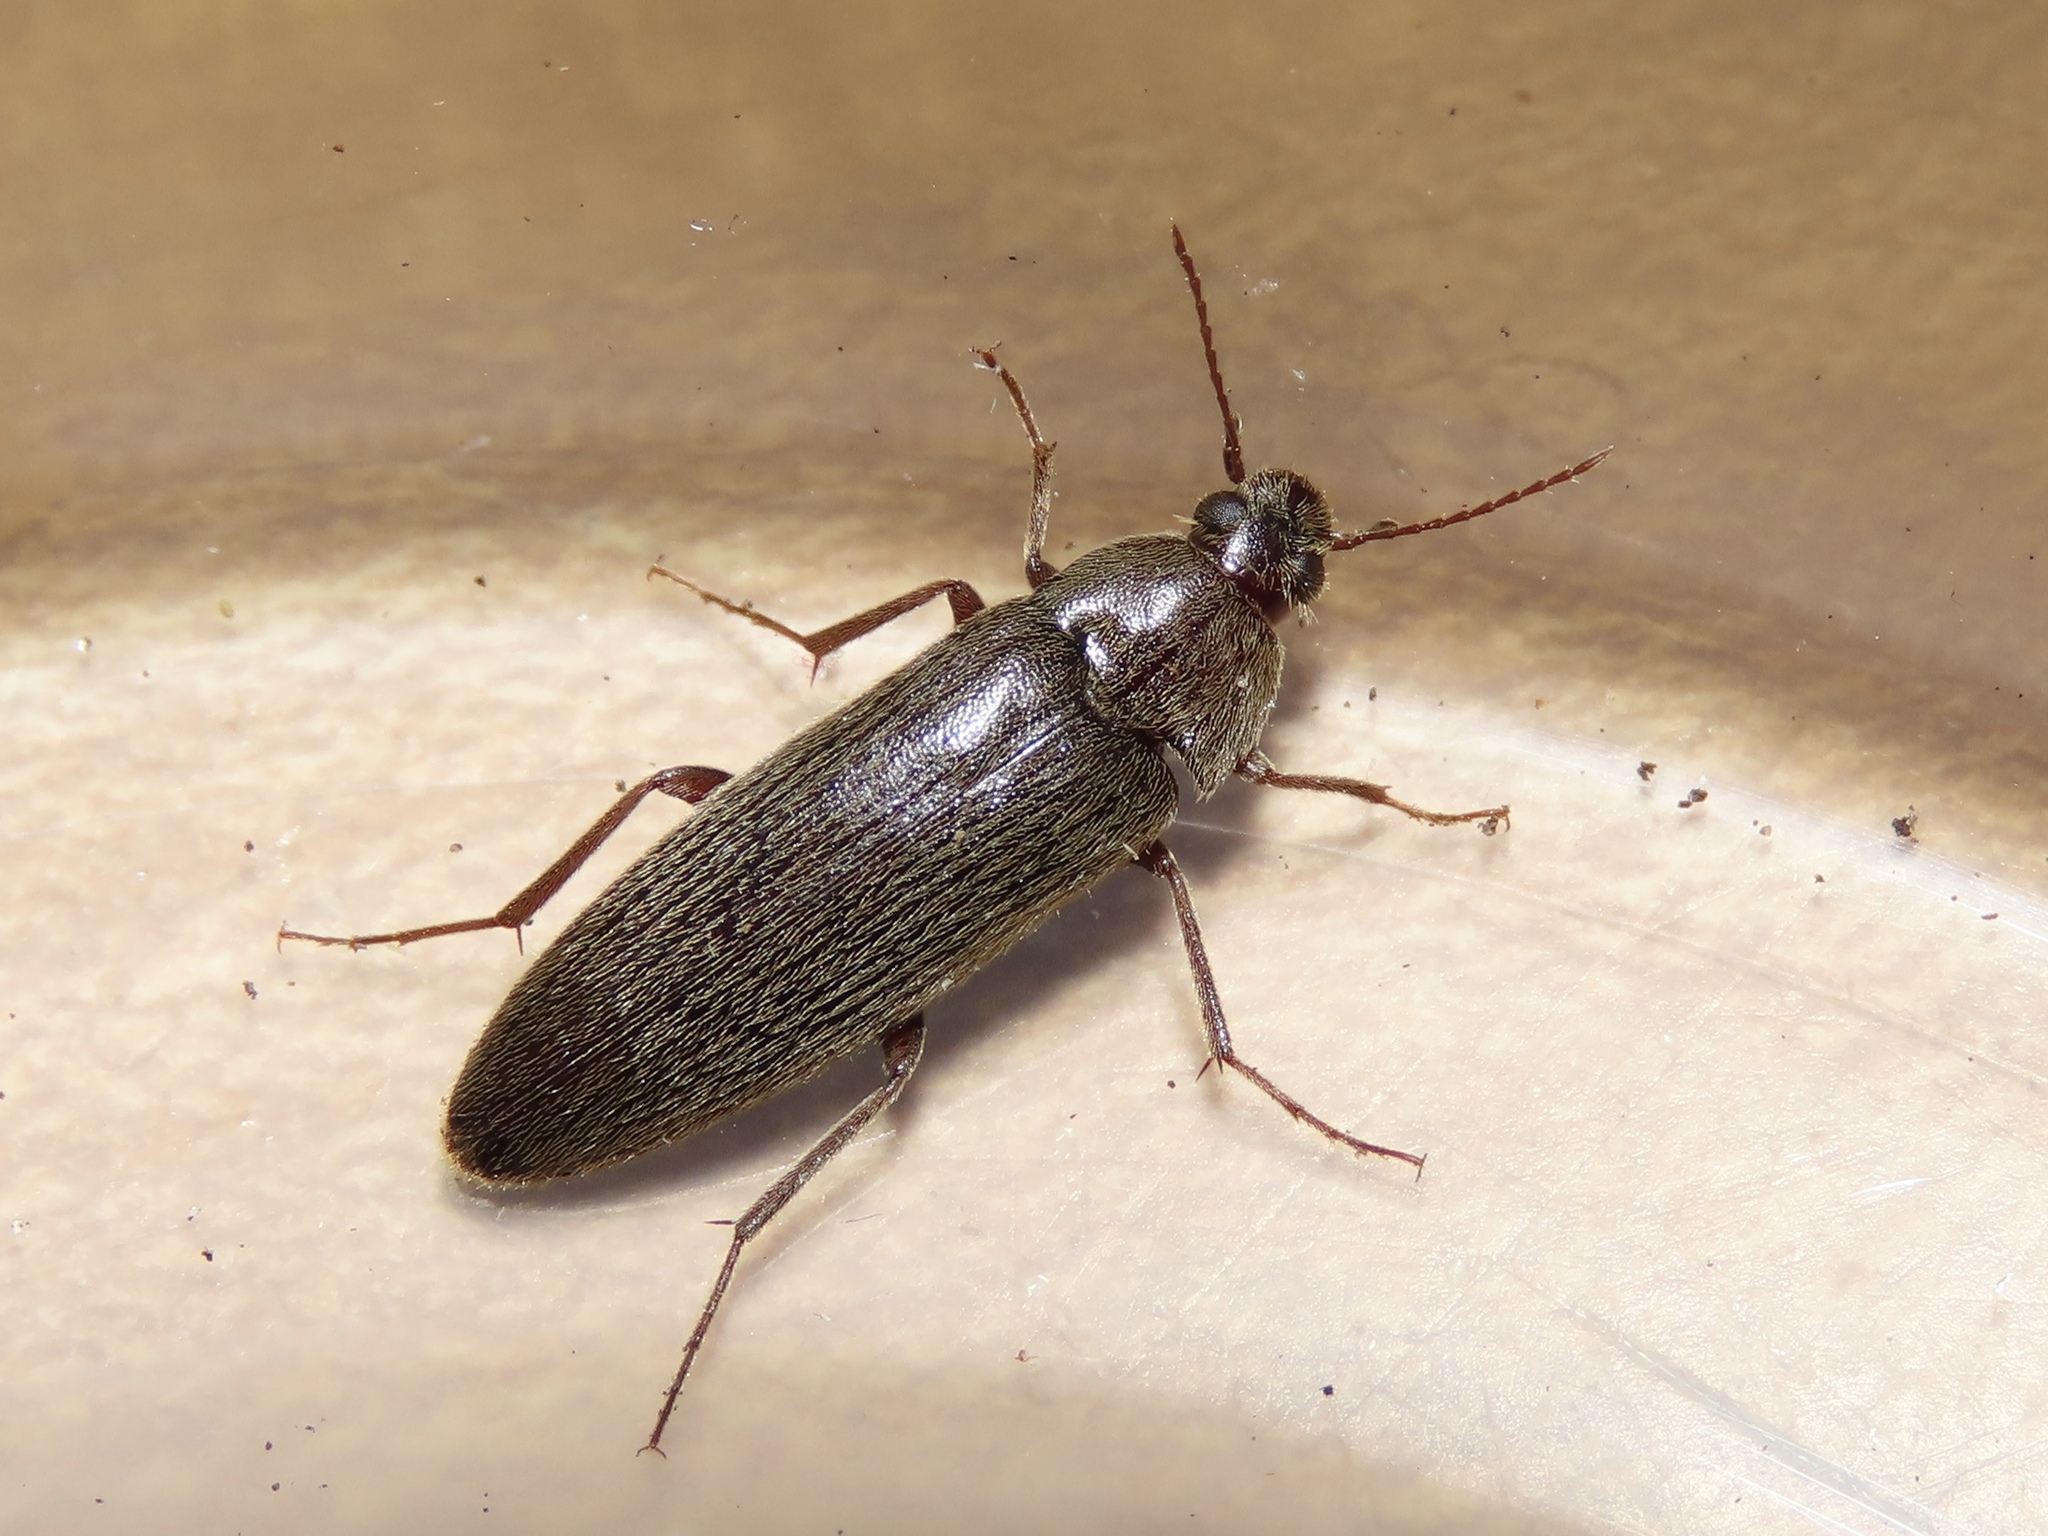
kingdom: Animalia
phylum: Arthropoda
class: Insecta
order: Coleoptera
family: Synchroidae
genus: Synchroa
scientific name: Synchroa punctata
